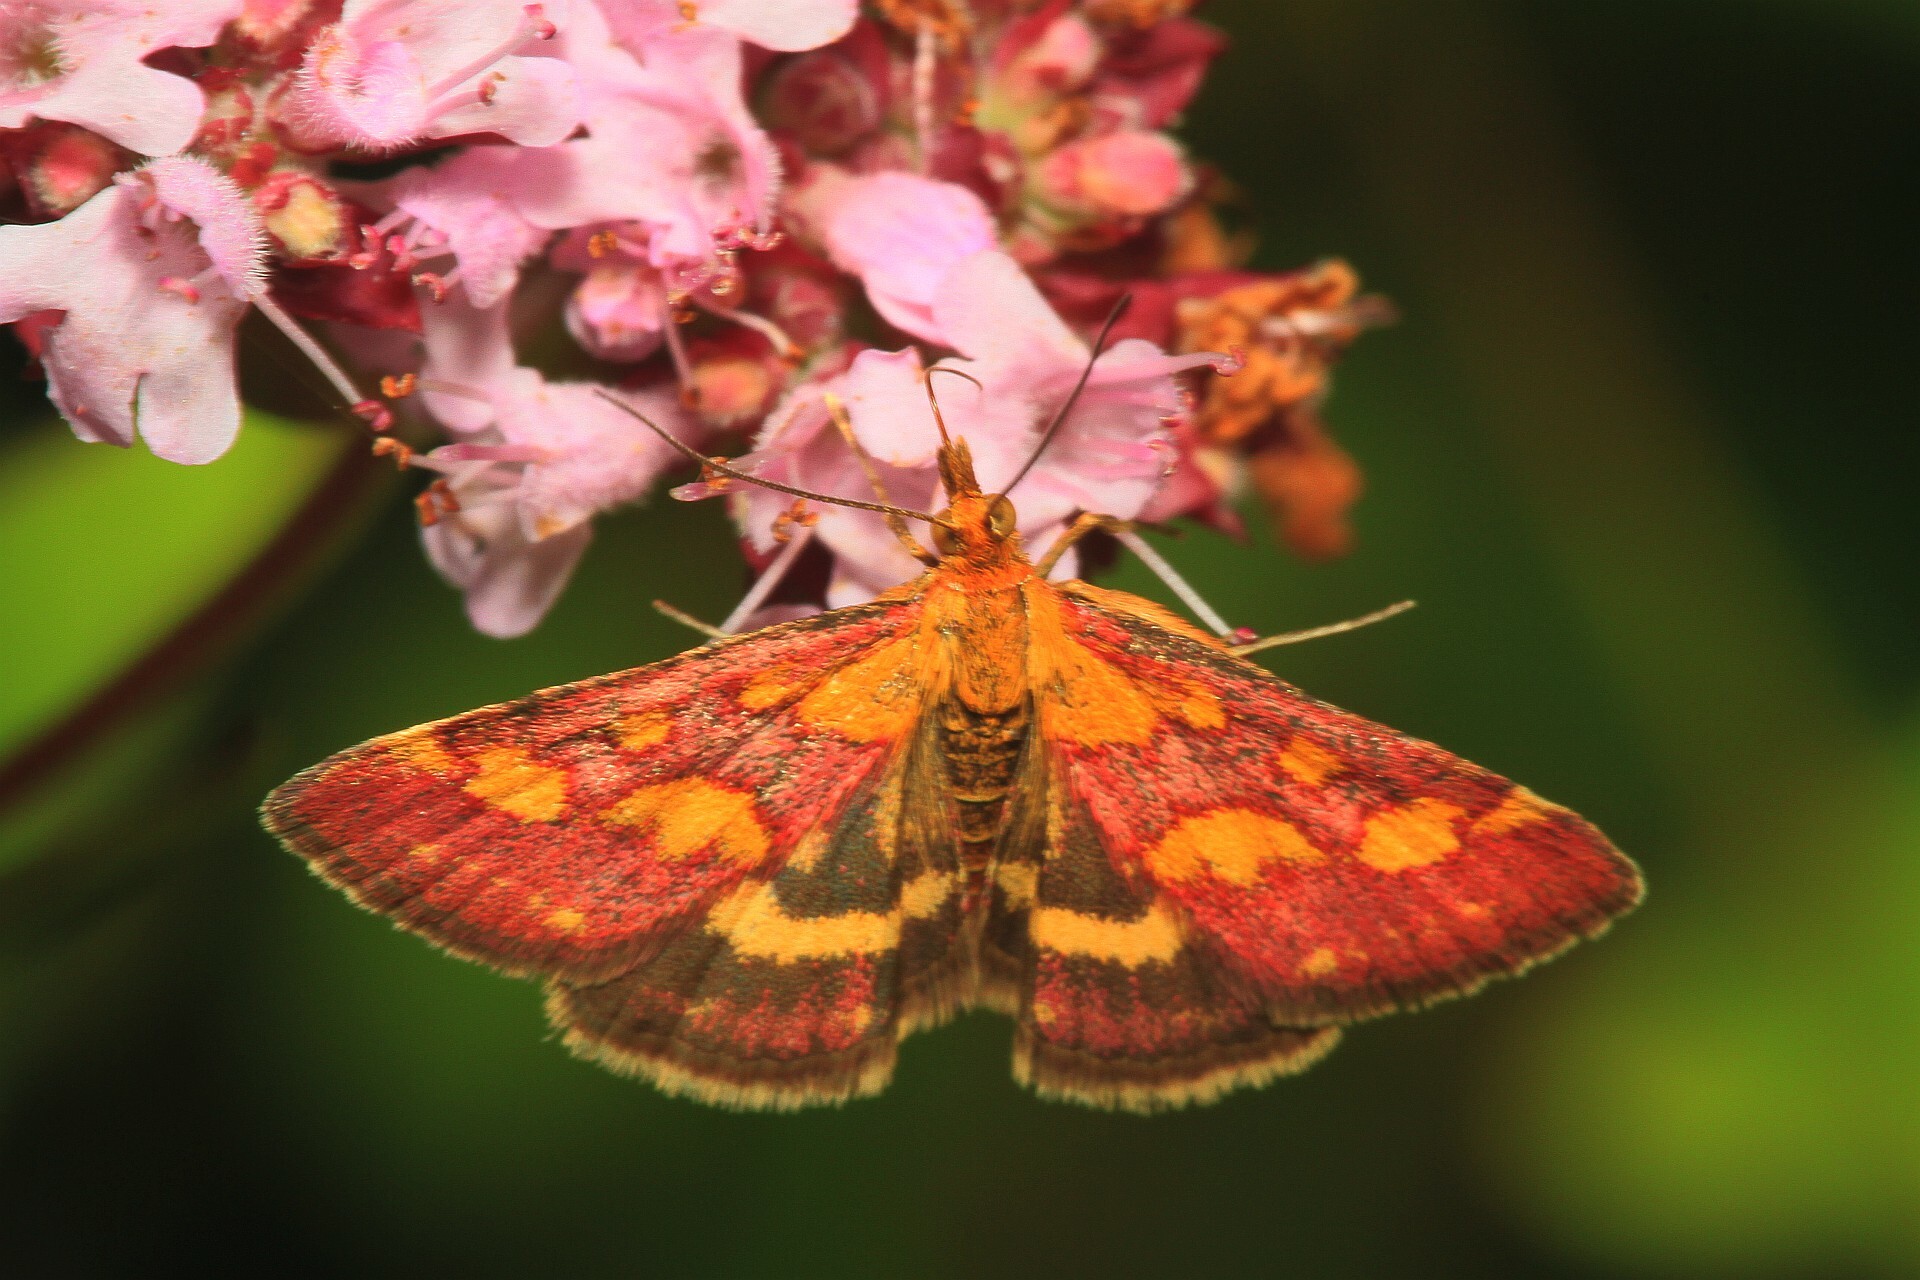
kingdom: Animalia
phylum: Arthropoda
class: Insecta
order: Lepidoptera
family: Crambidae
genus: Pyrausta
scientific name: Pyrausta purpuralis
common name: Common purple & gold
